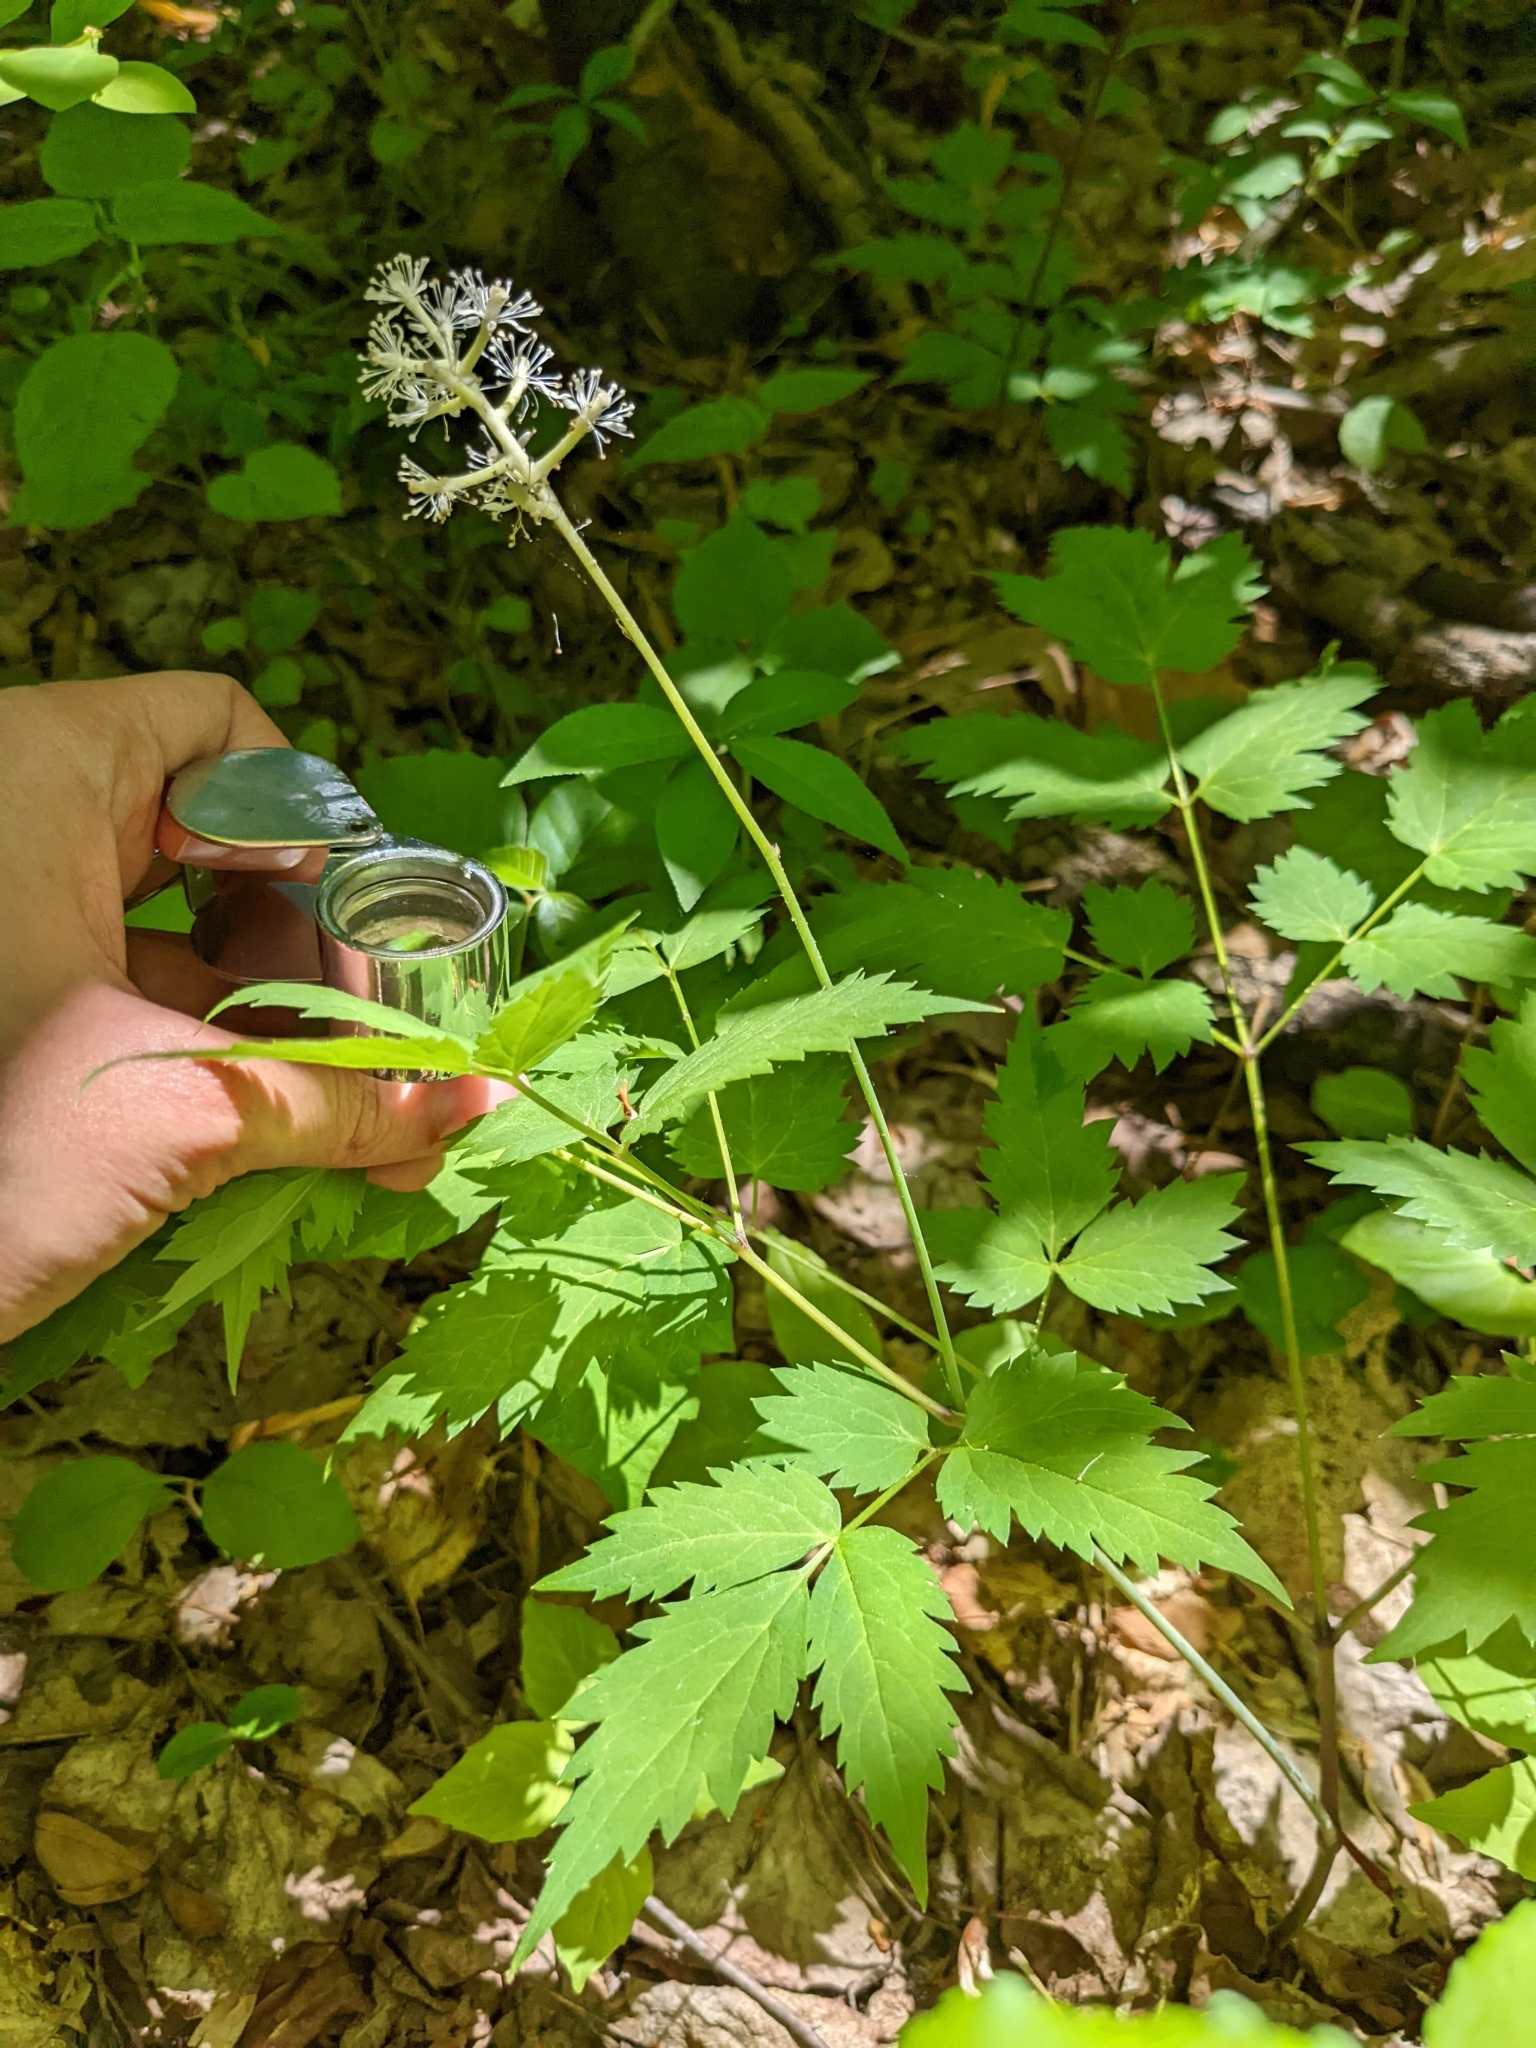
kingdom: Plantae
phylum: Tracheophyta
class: Magnoliopsida
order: Ranunculales
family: Ranunculaceae
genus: Actaea
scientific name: Actaea pachypoda
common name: Doll's-eyes
